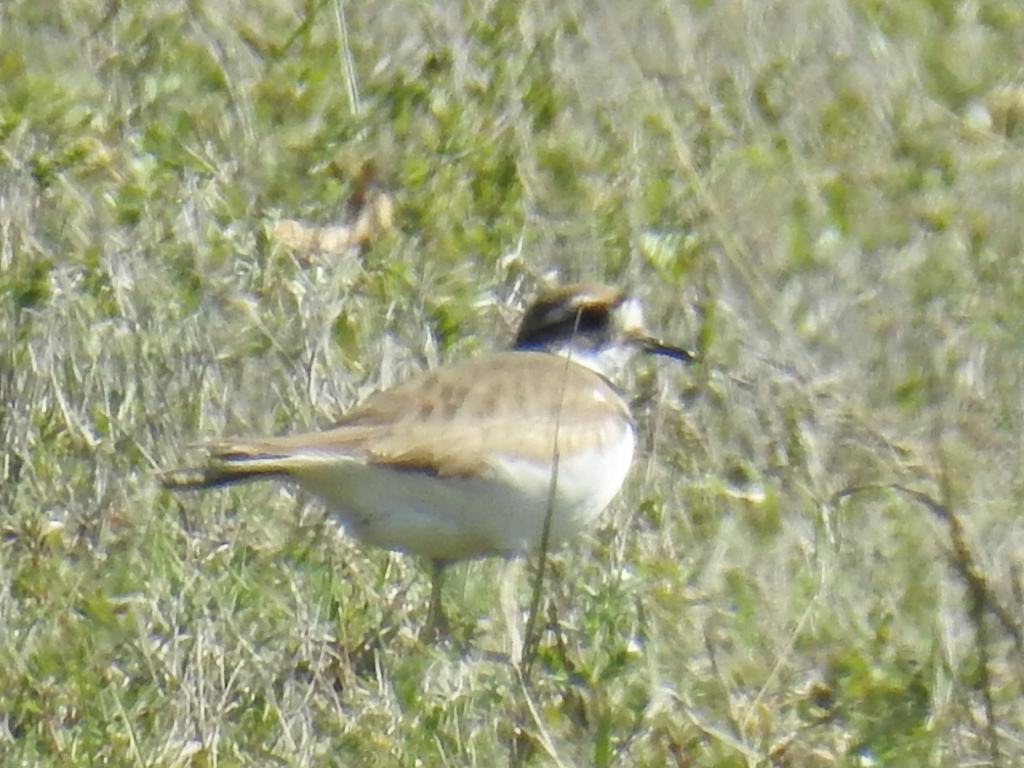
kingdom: Animalia
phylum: Chordata
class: Aves
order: Charadriiformes
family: Charadriidae
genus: Charadrius
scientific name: Charadrius vociferus
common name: Killdeer
